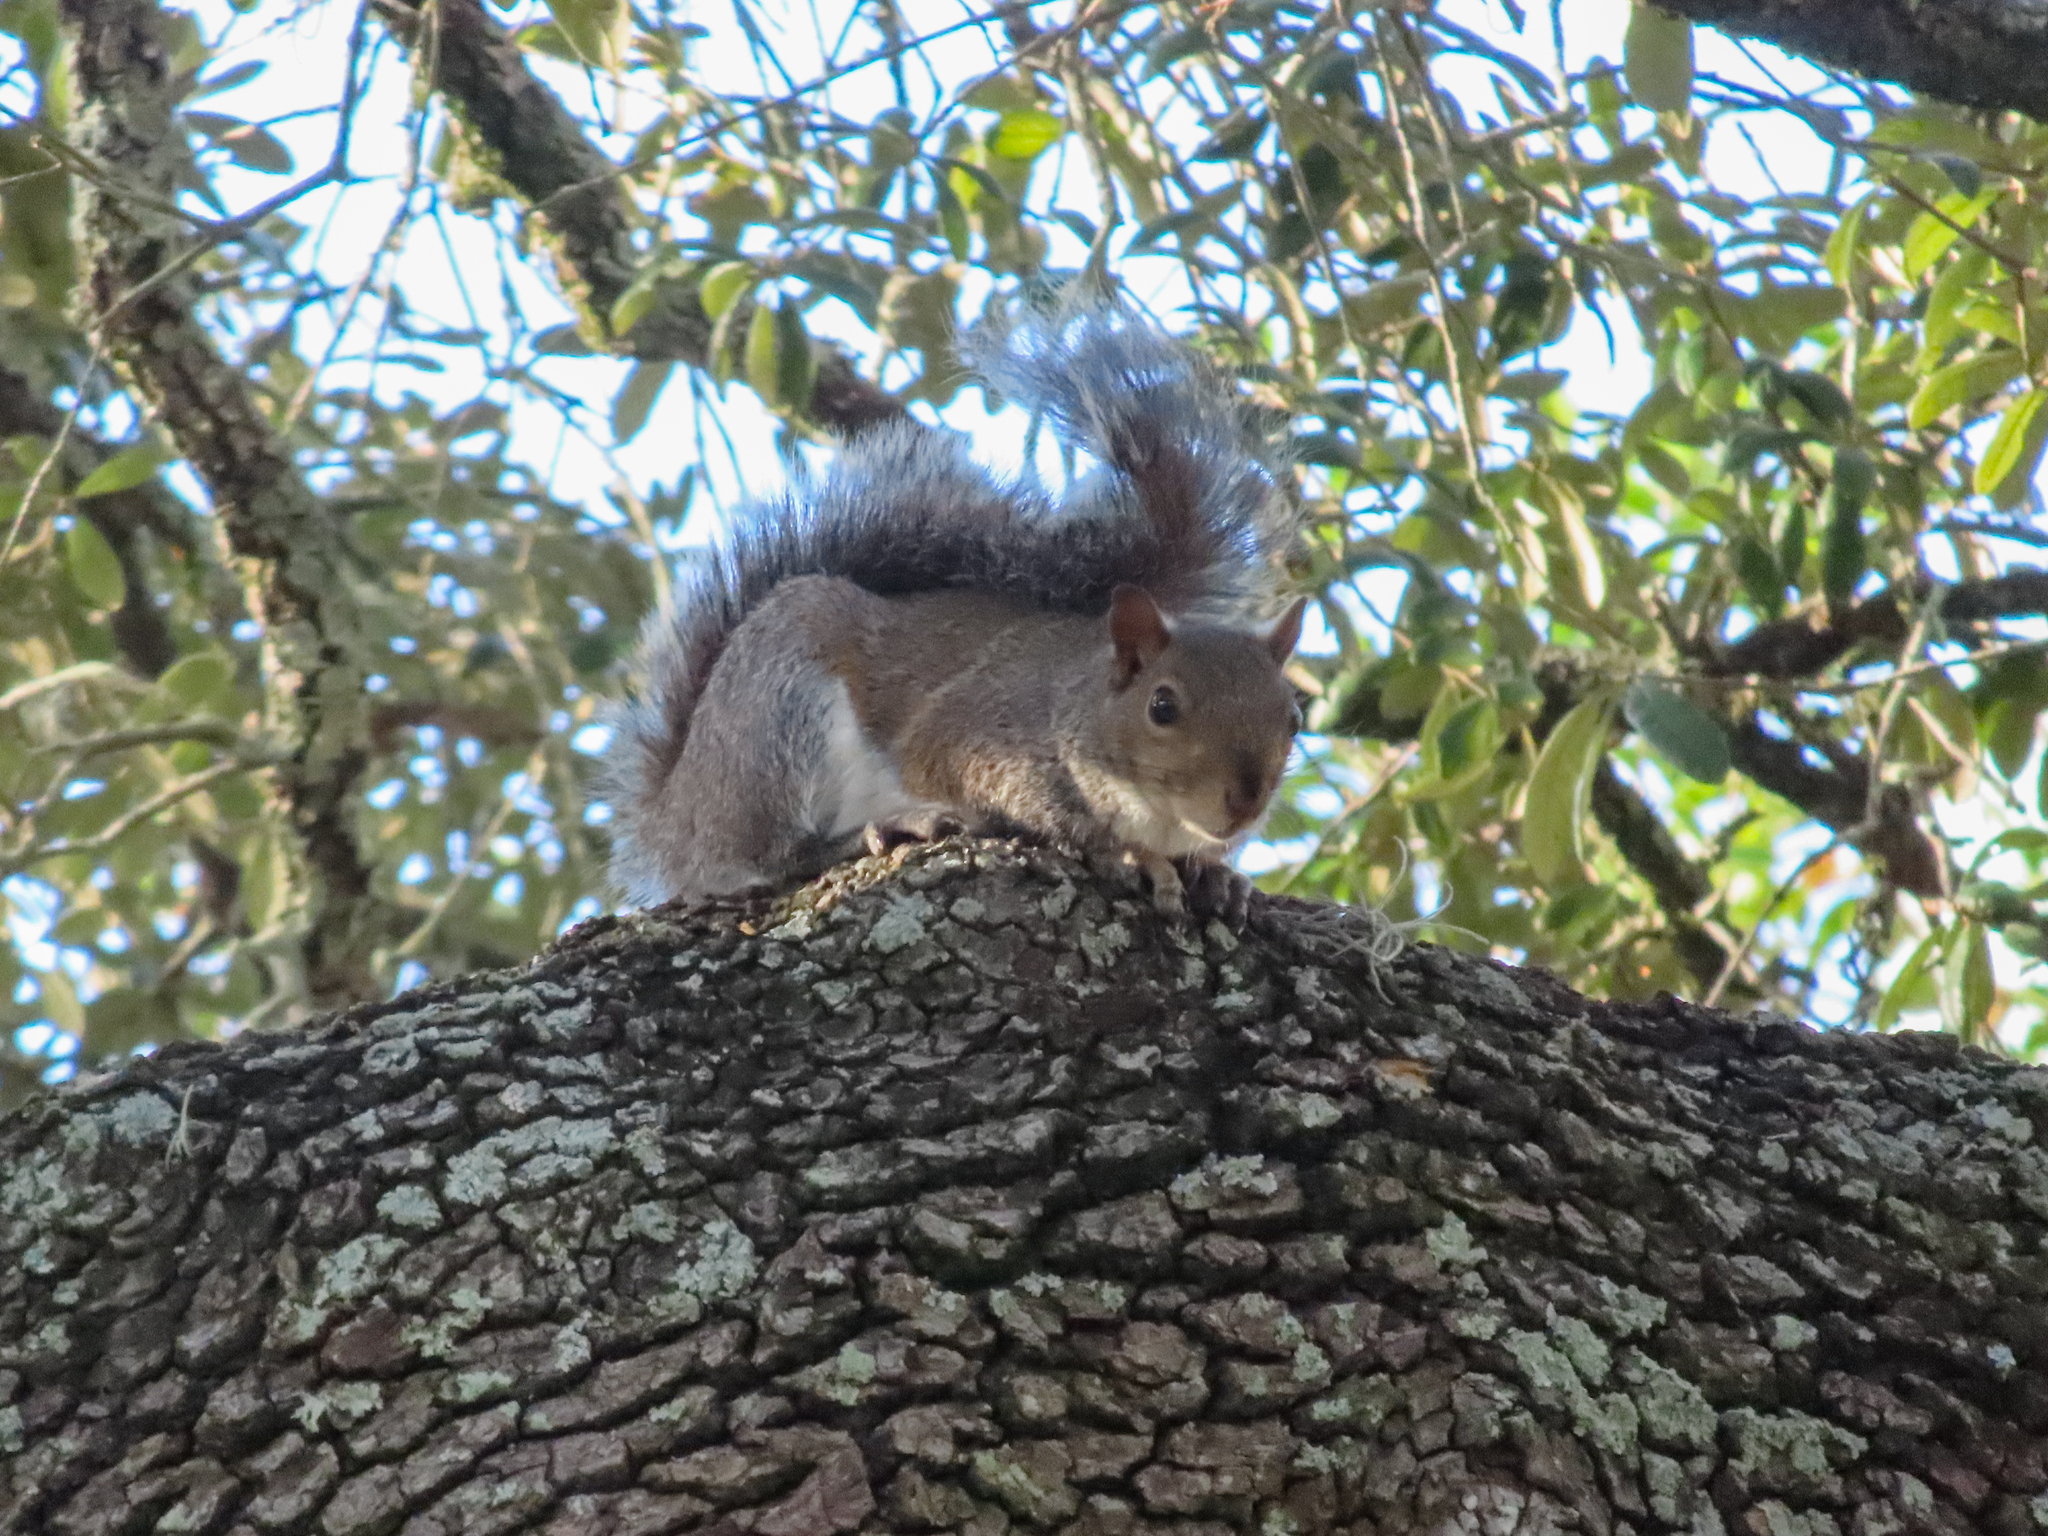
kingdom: Animalia
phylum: Chordata
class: Mammalia
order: Rodentia
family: Sciuridae
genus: Sciurus
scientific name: Sciurus carolinensis
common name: Eastern gray squirrel
